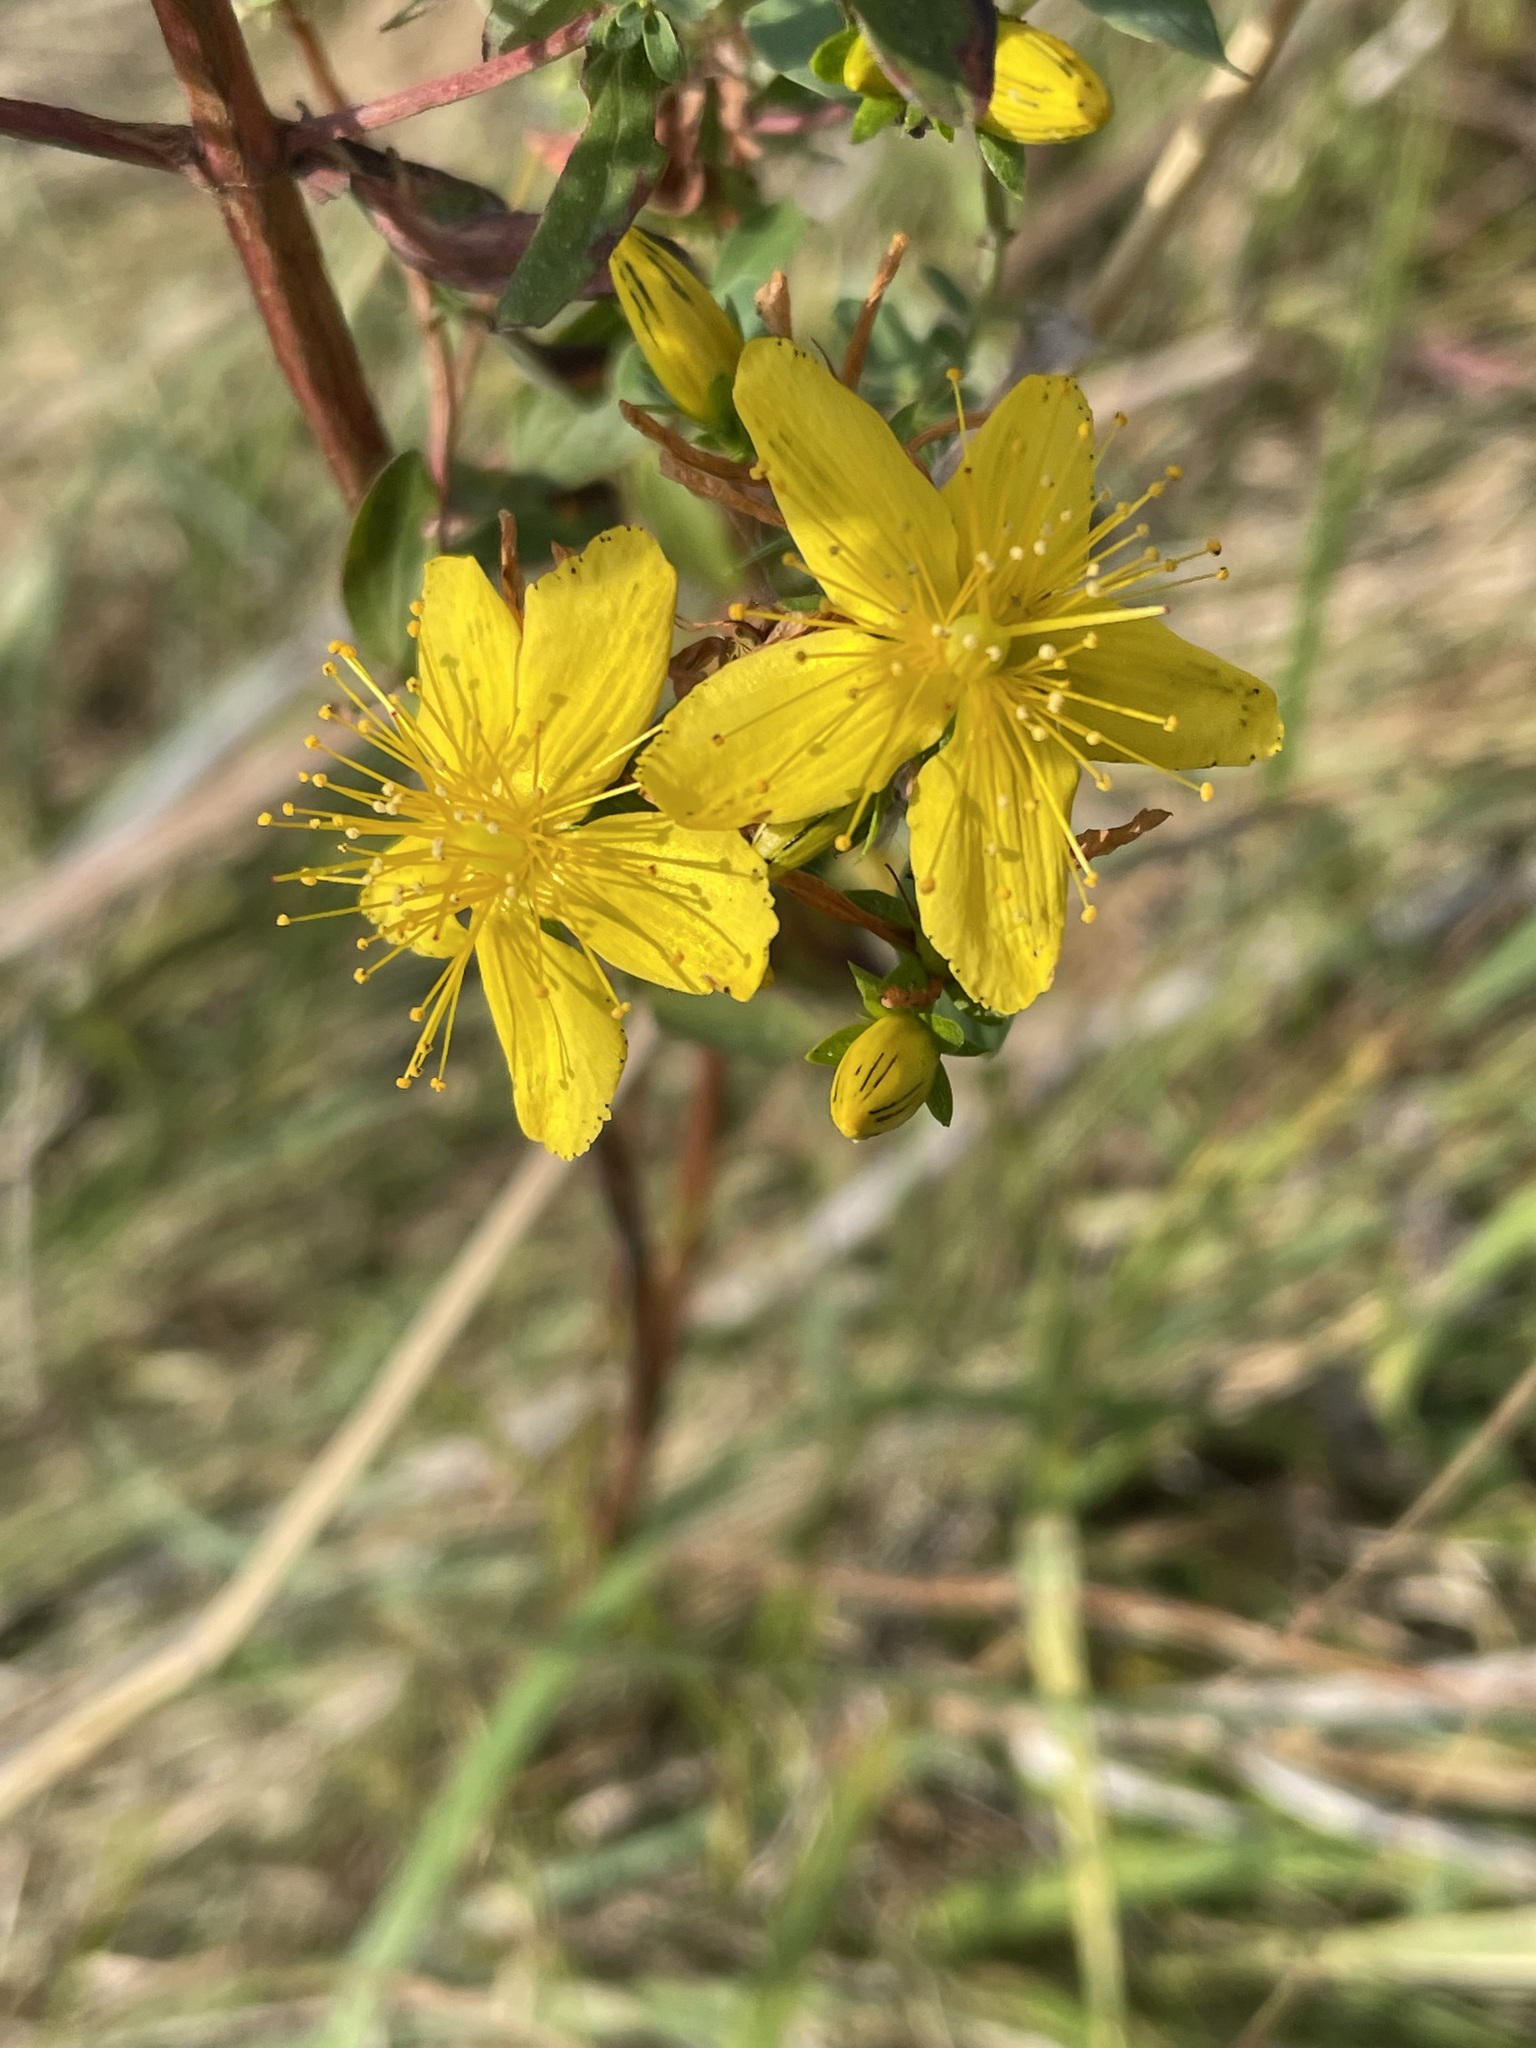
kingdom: Plantae
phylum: Tracheophyta
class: Magnoliopsida
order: Malpighiales
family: Hypericaceae
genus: Hypericum
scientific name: Hypericum perforatum
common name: Common st. johnswort
